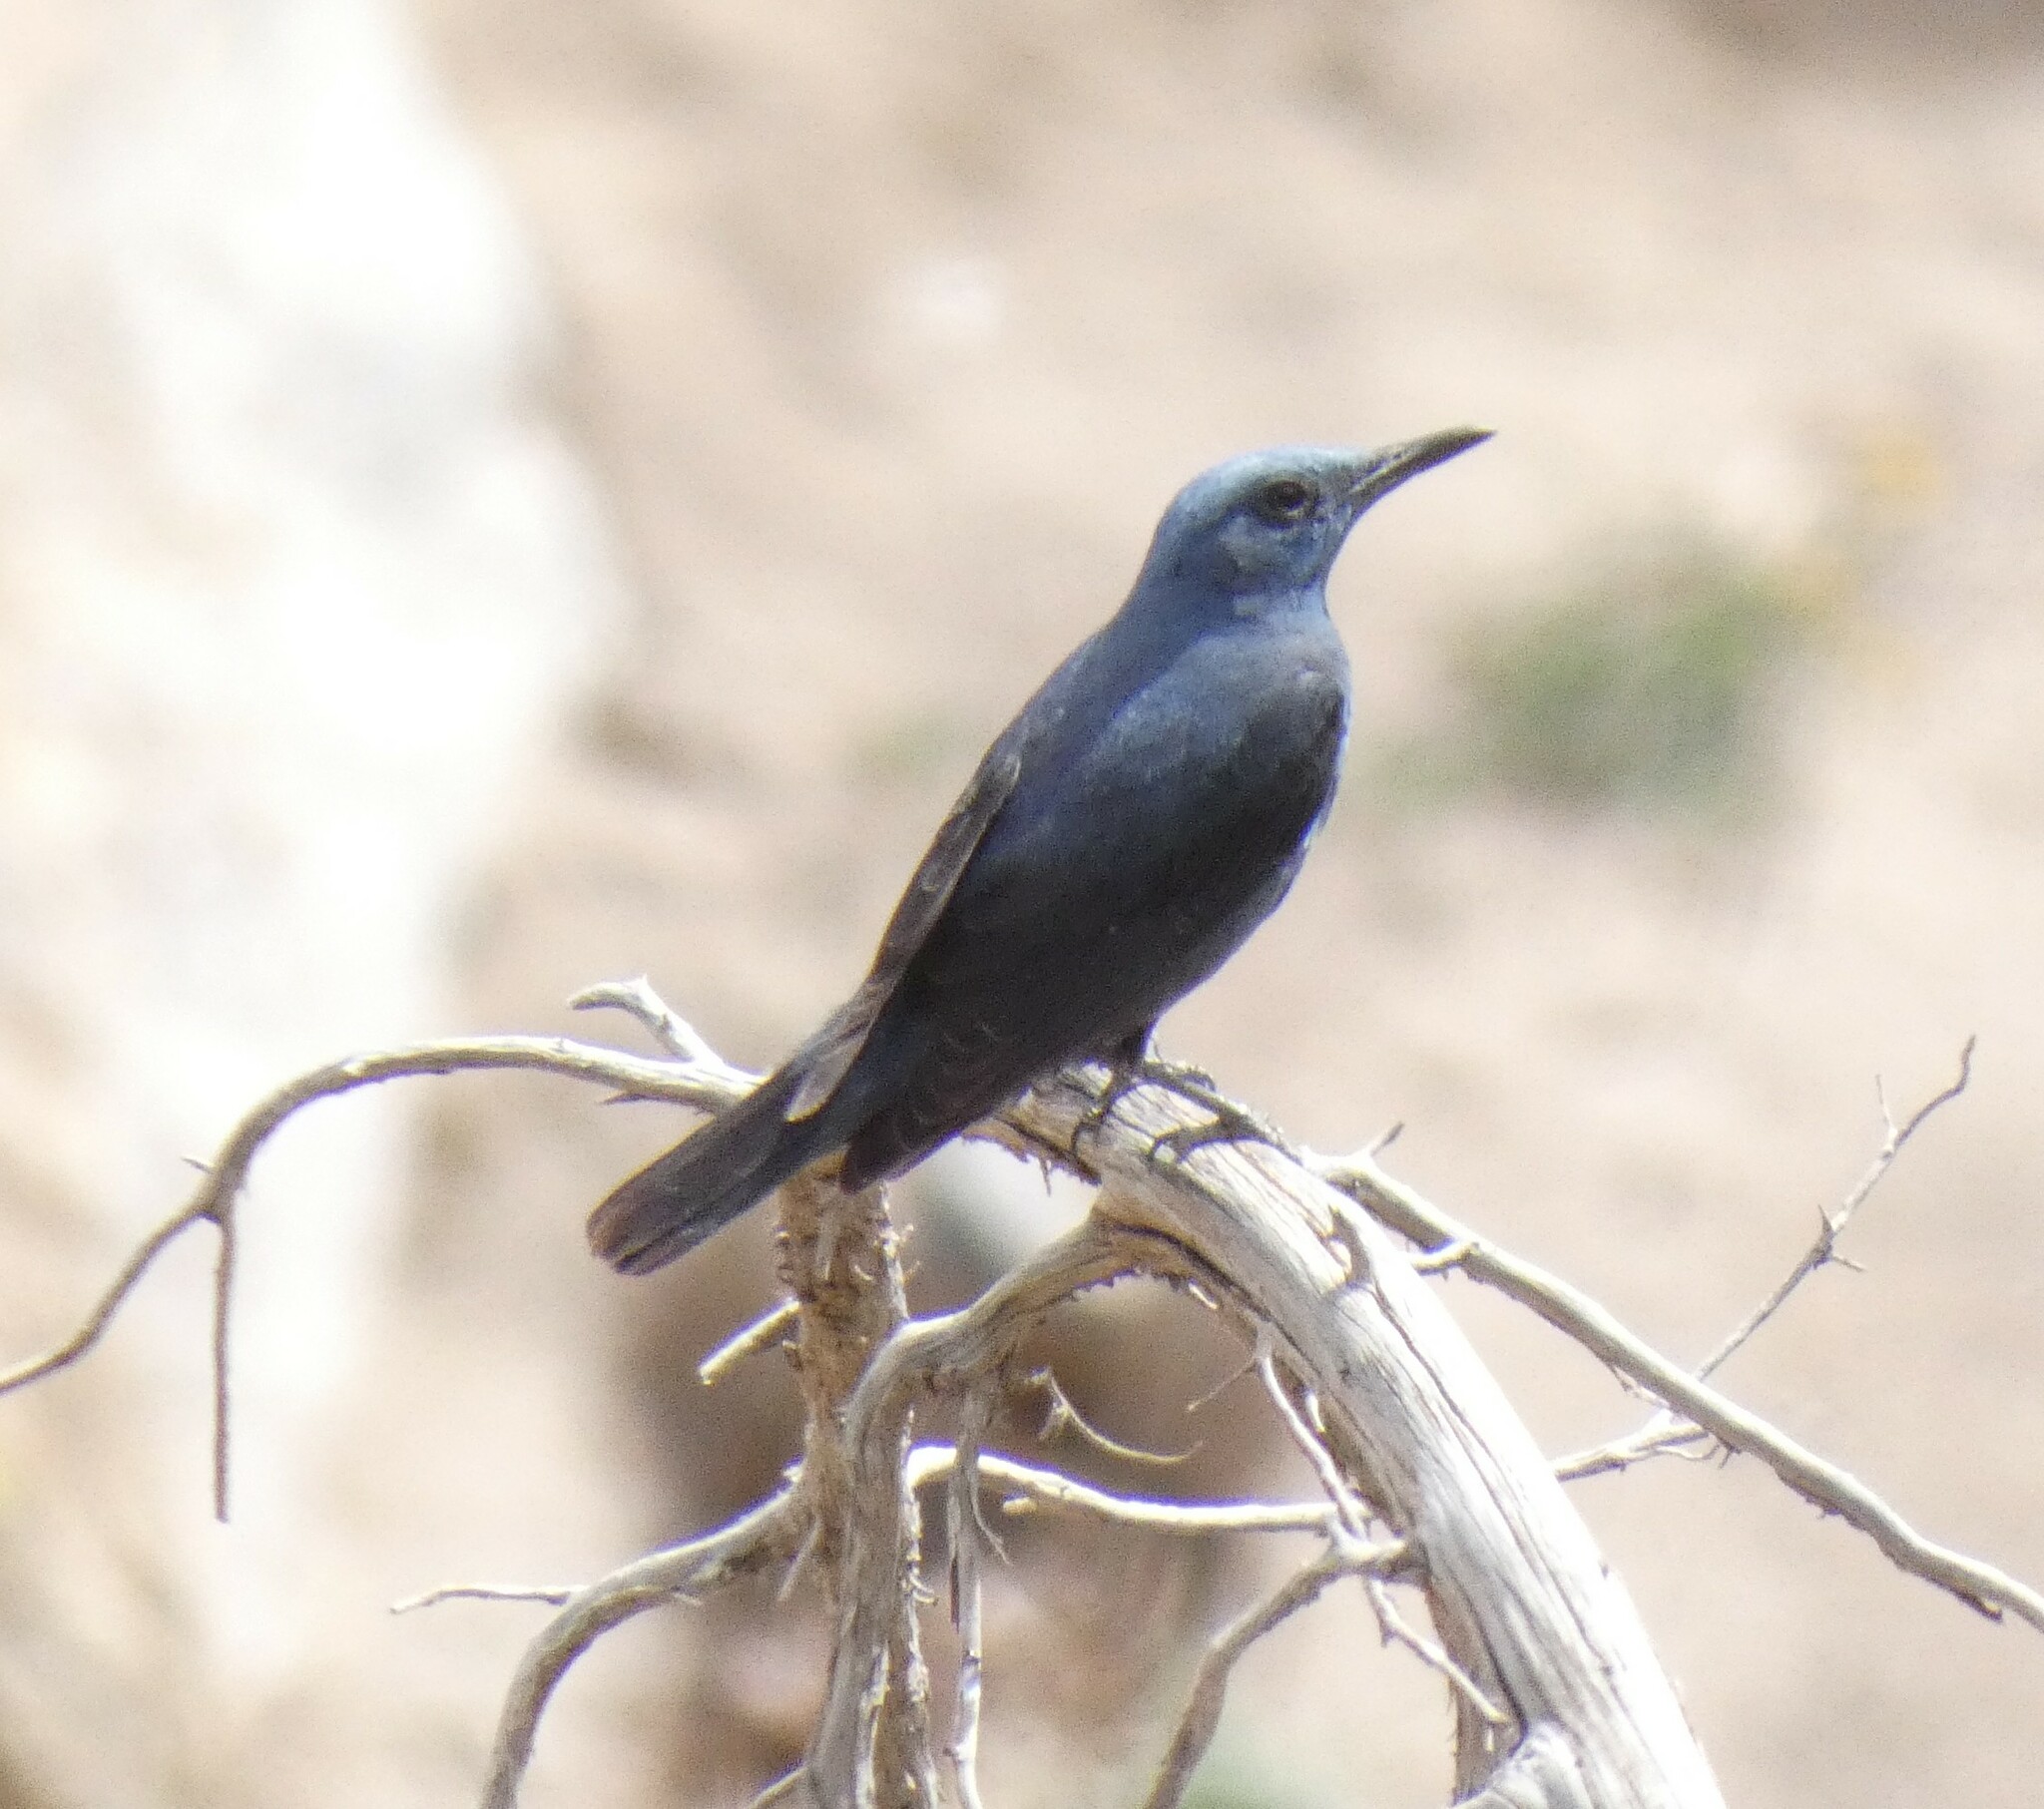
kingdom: Animalia
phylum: Chordata
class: Aves
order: Passeriformes
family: Muscicapidae
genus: Monticola
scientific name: Monticola solitarius
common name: Blue rock thrush
